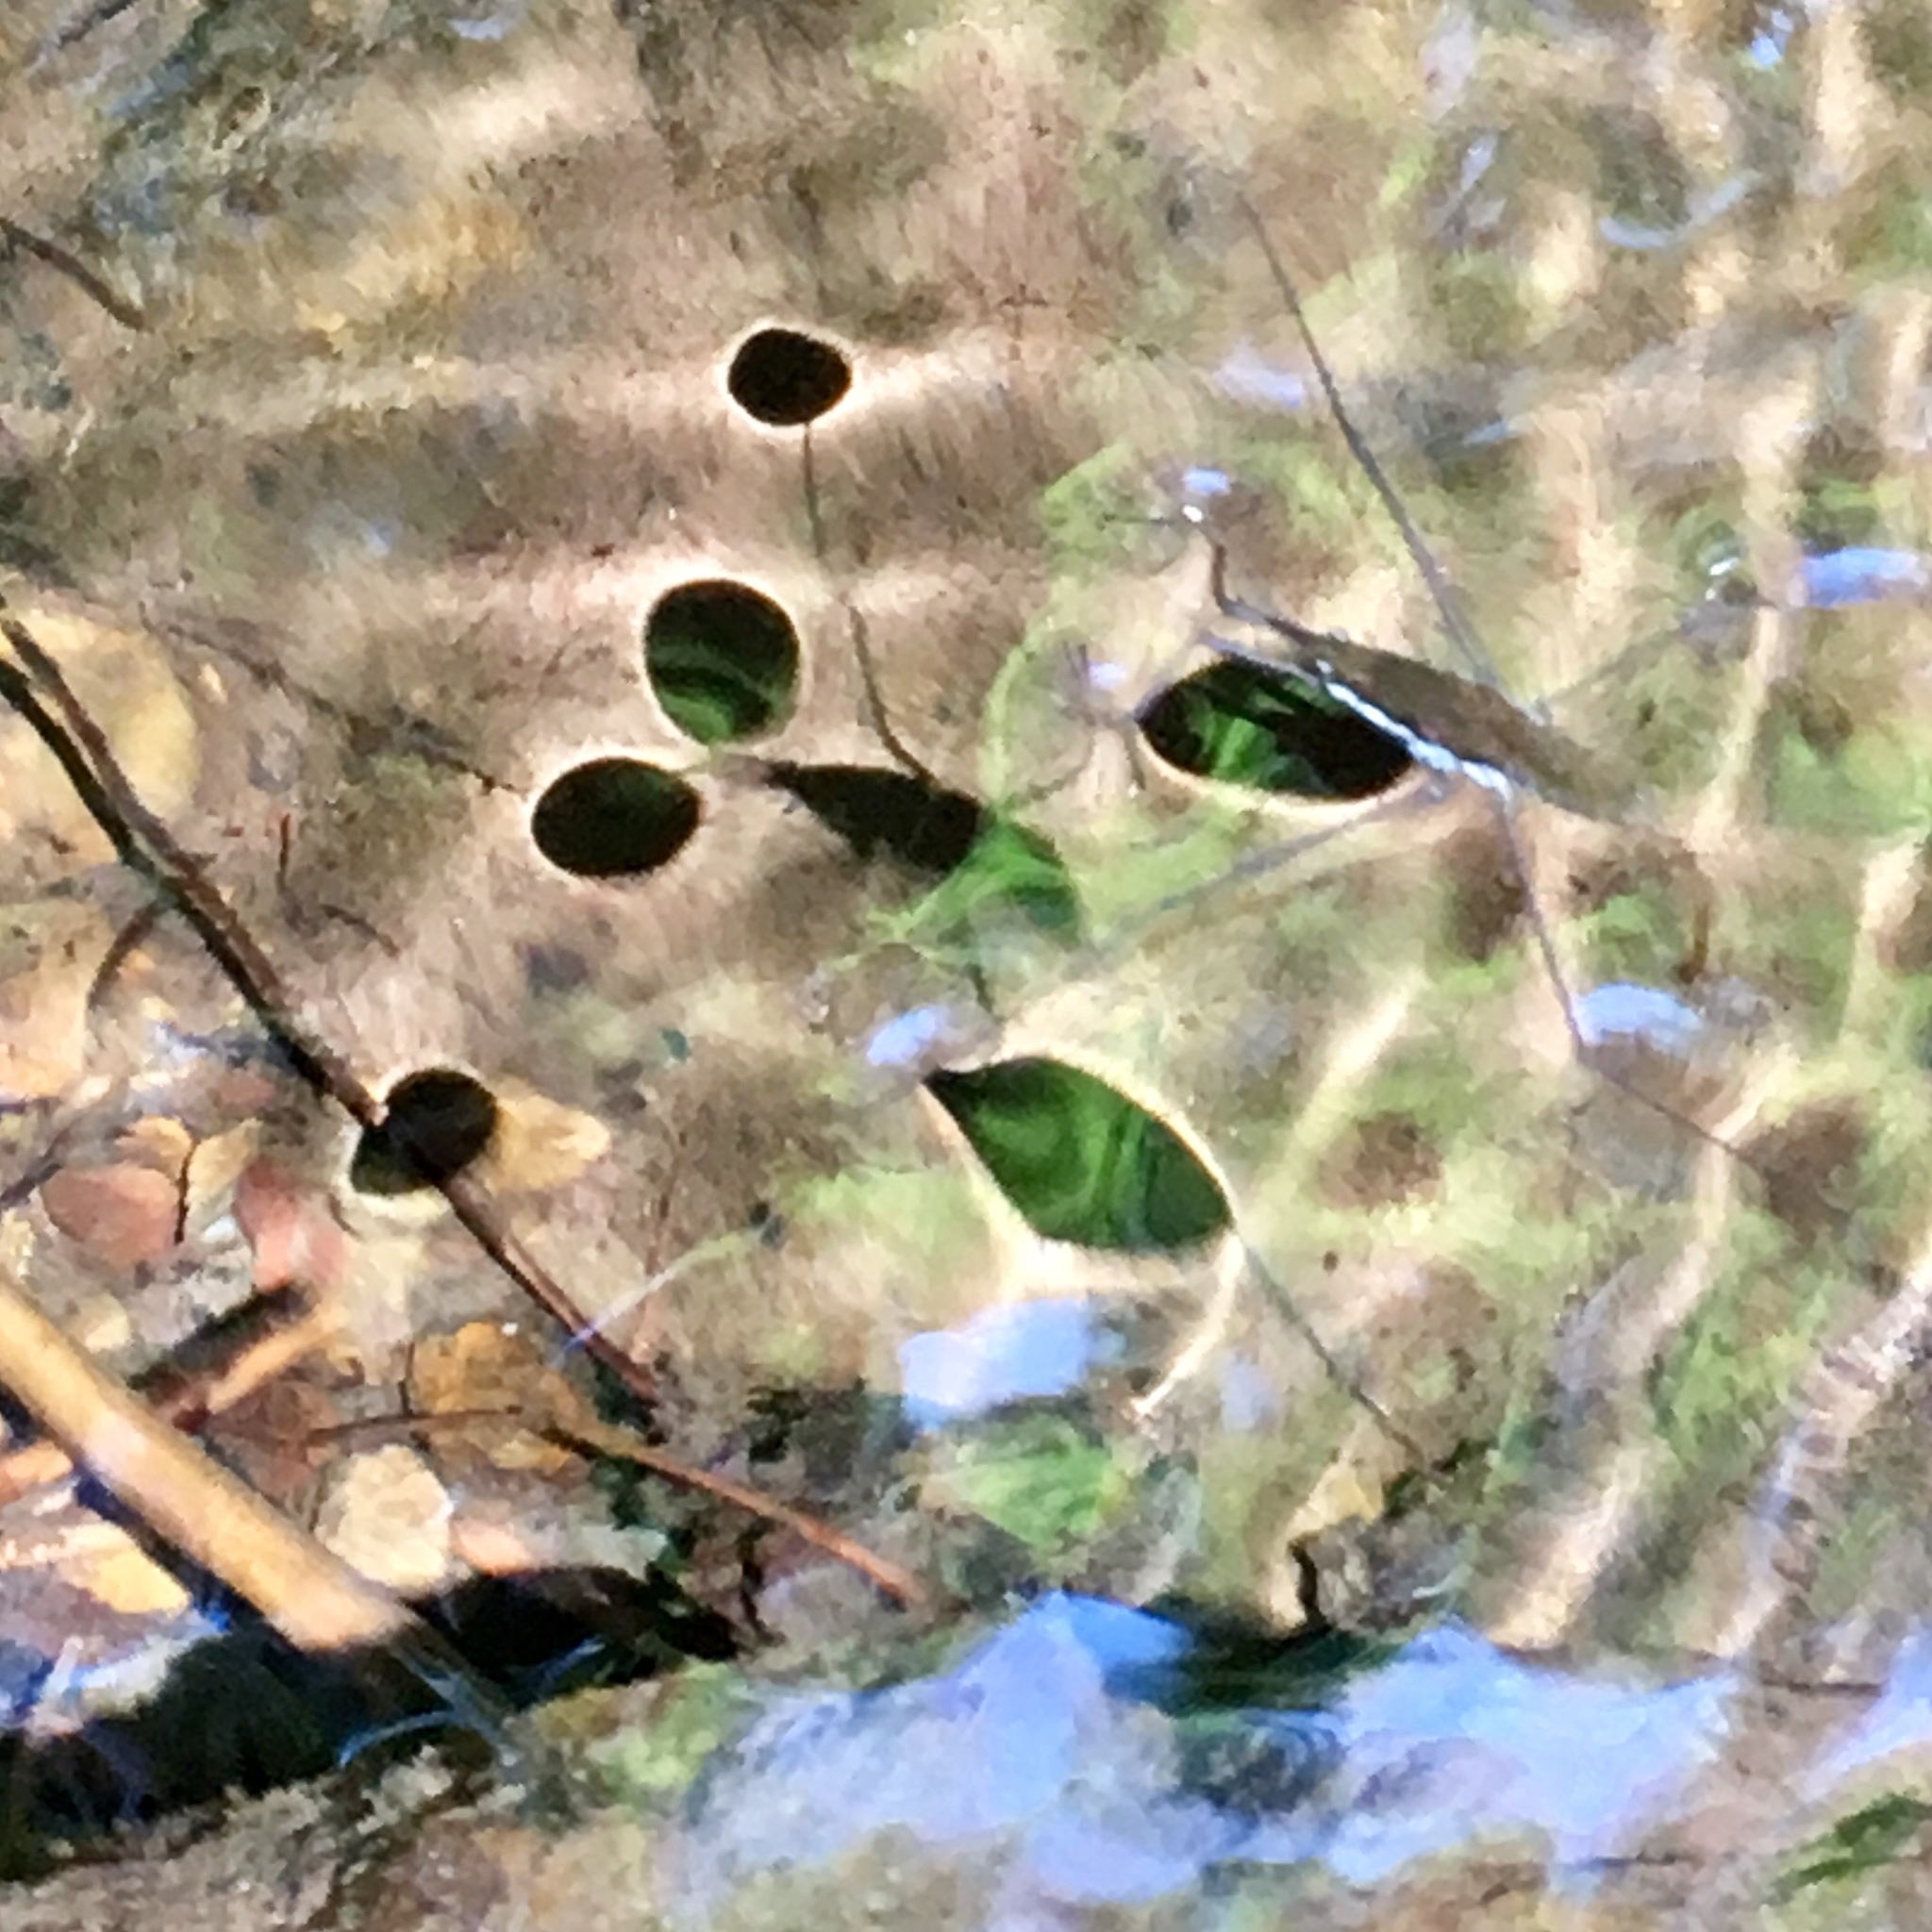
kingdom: Animalia
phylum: Arthropoda
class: Insecta
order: Hemiptera
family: Gerridae
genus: Aquarius
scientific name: Aquarius
